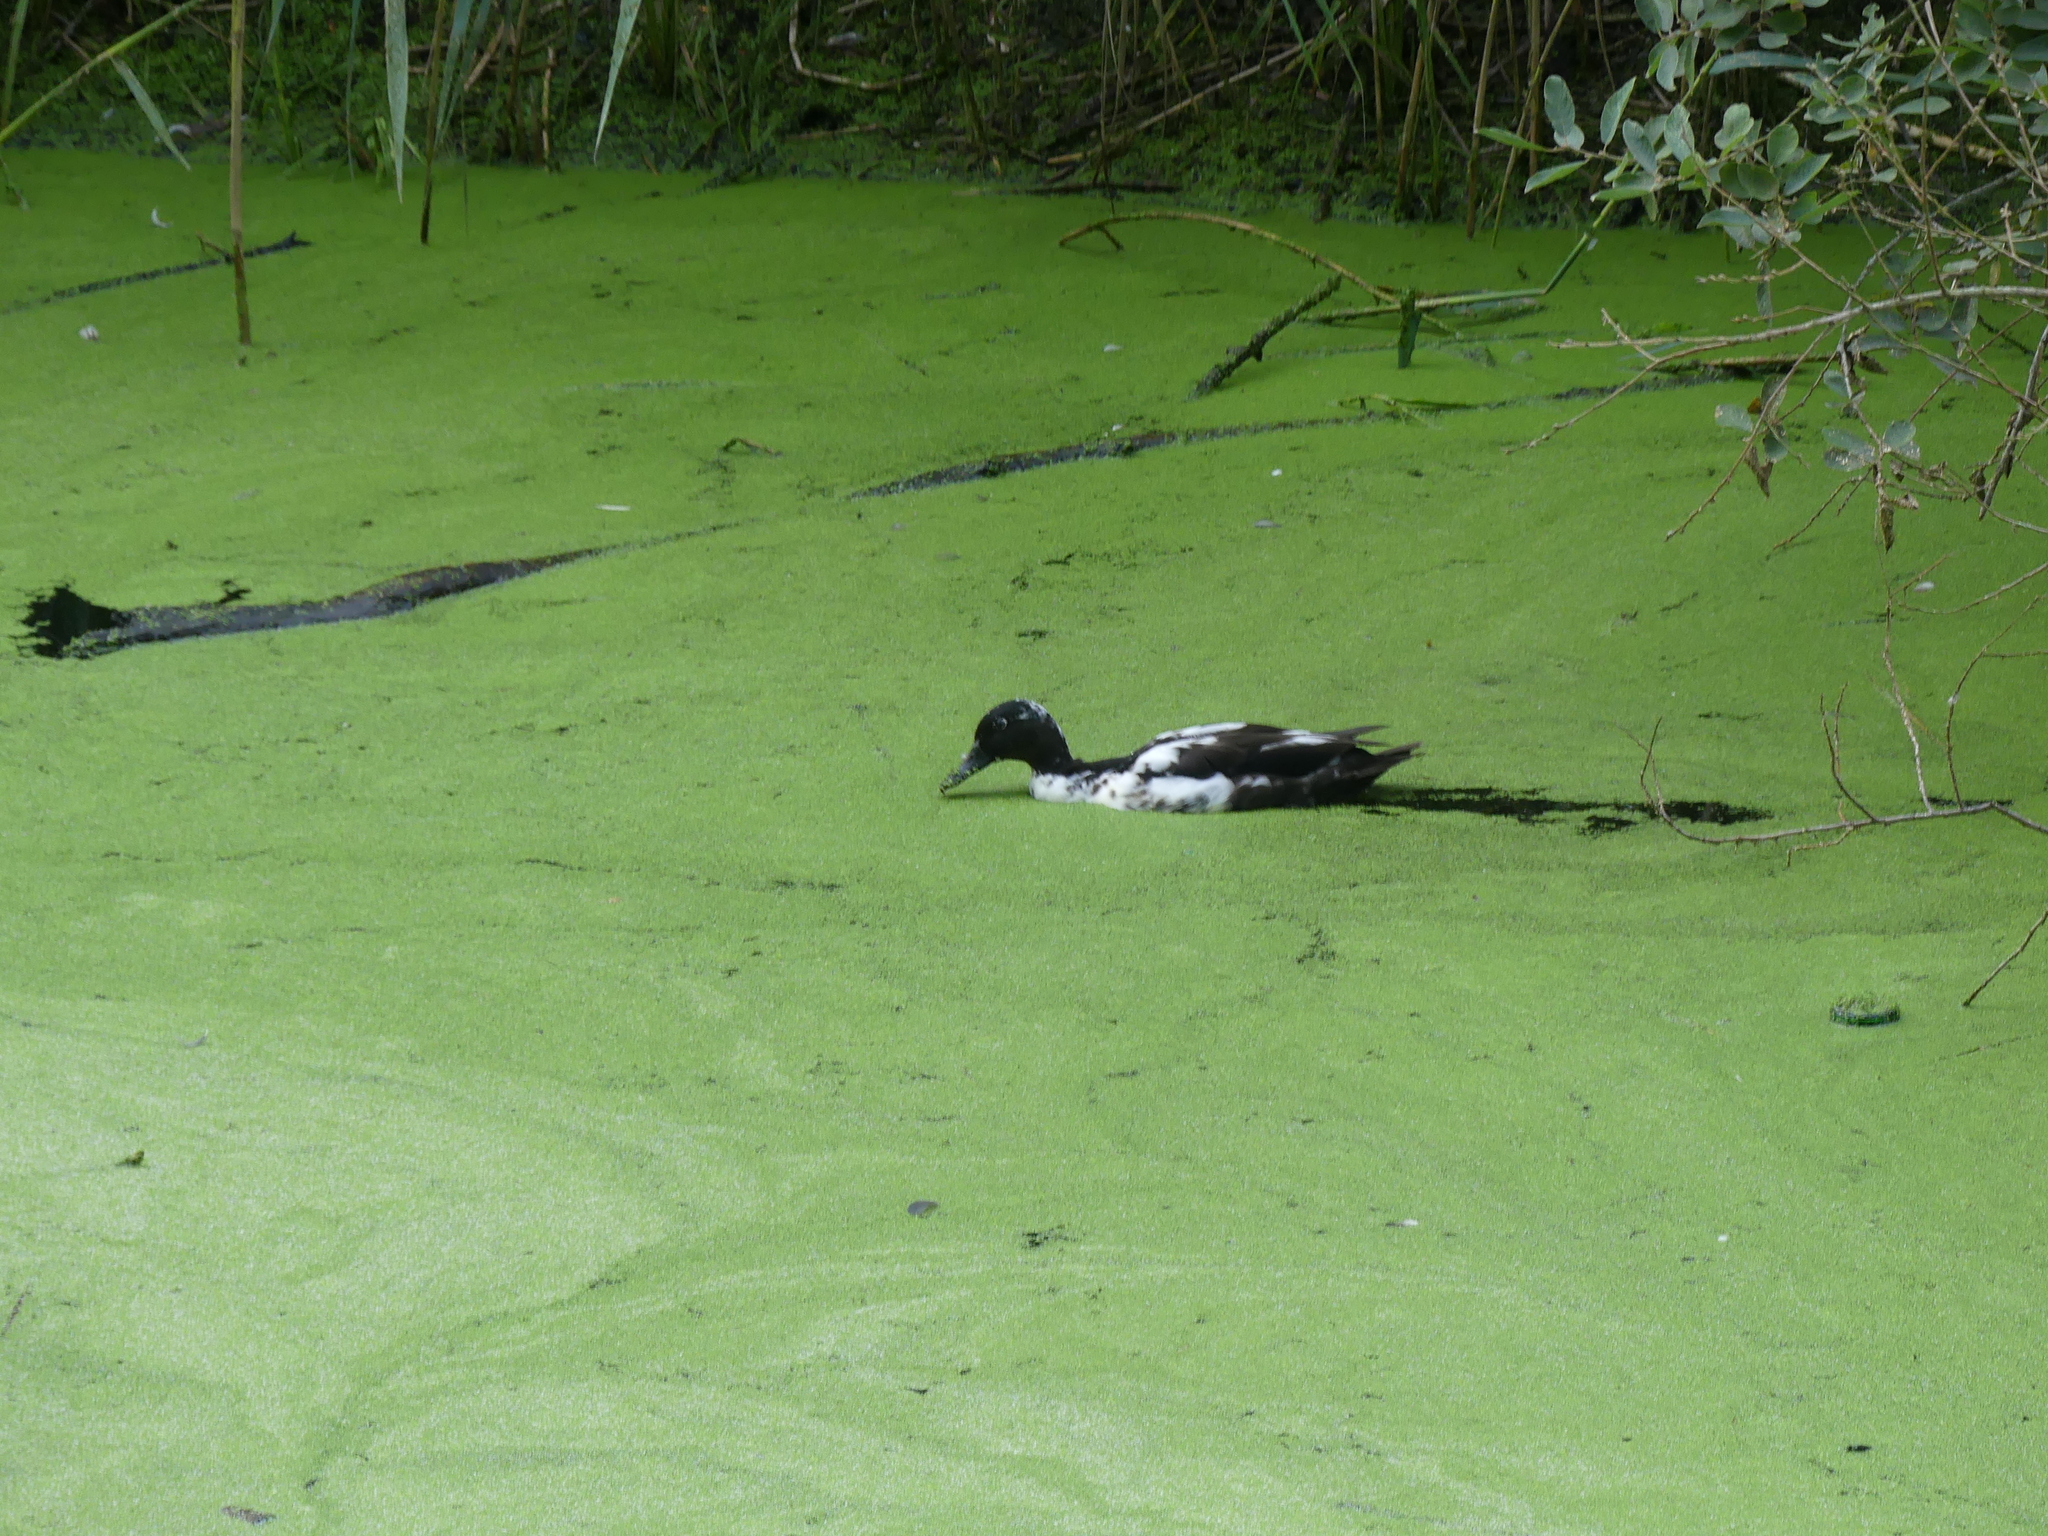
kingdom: Animalia
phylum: Chordata
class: Aves
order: Anseriformes
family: Anatidae
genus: Anas
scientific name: Anas platyrhynchos
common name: Mallard
